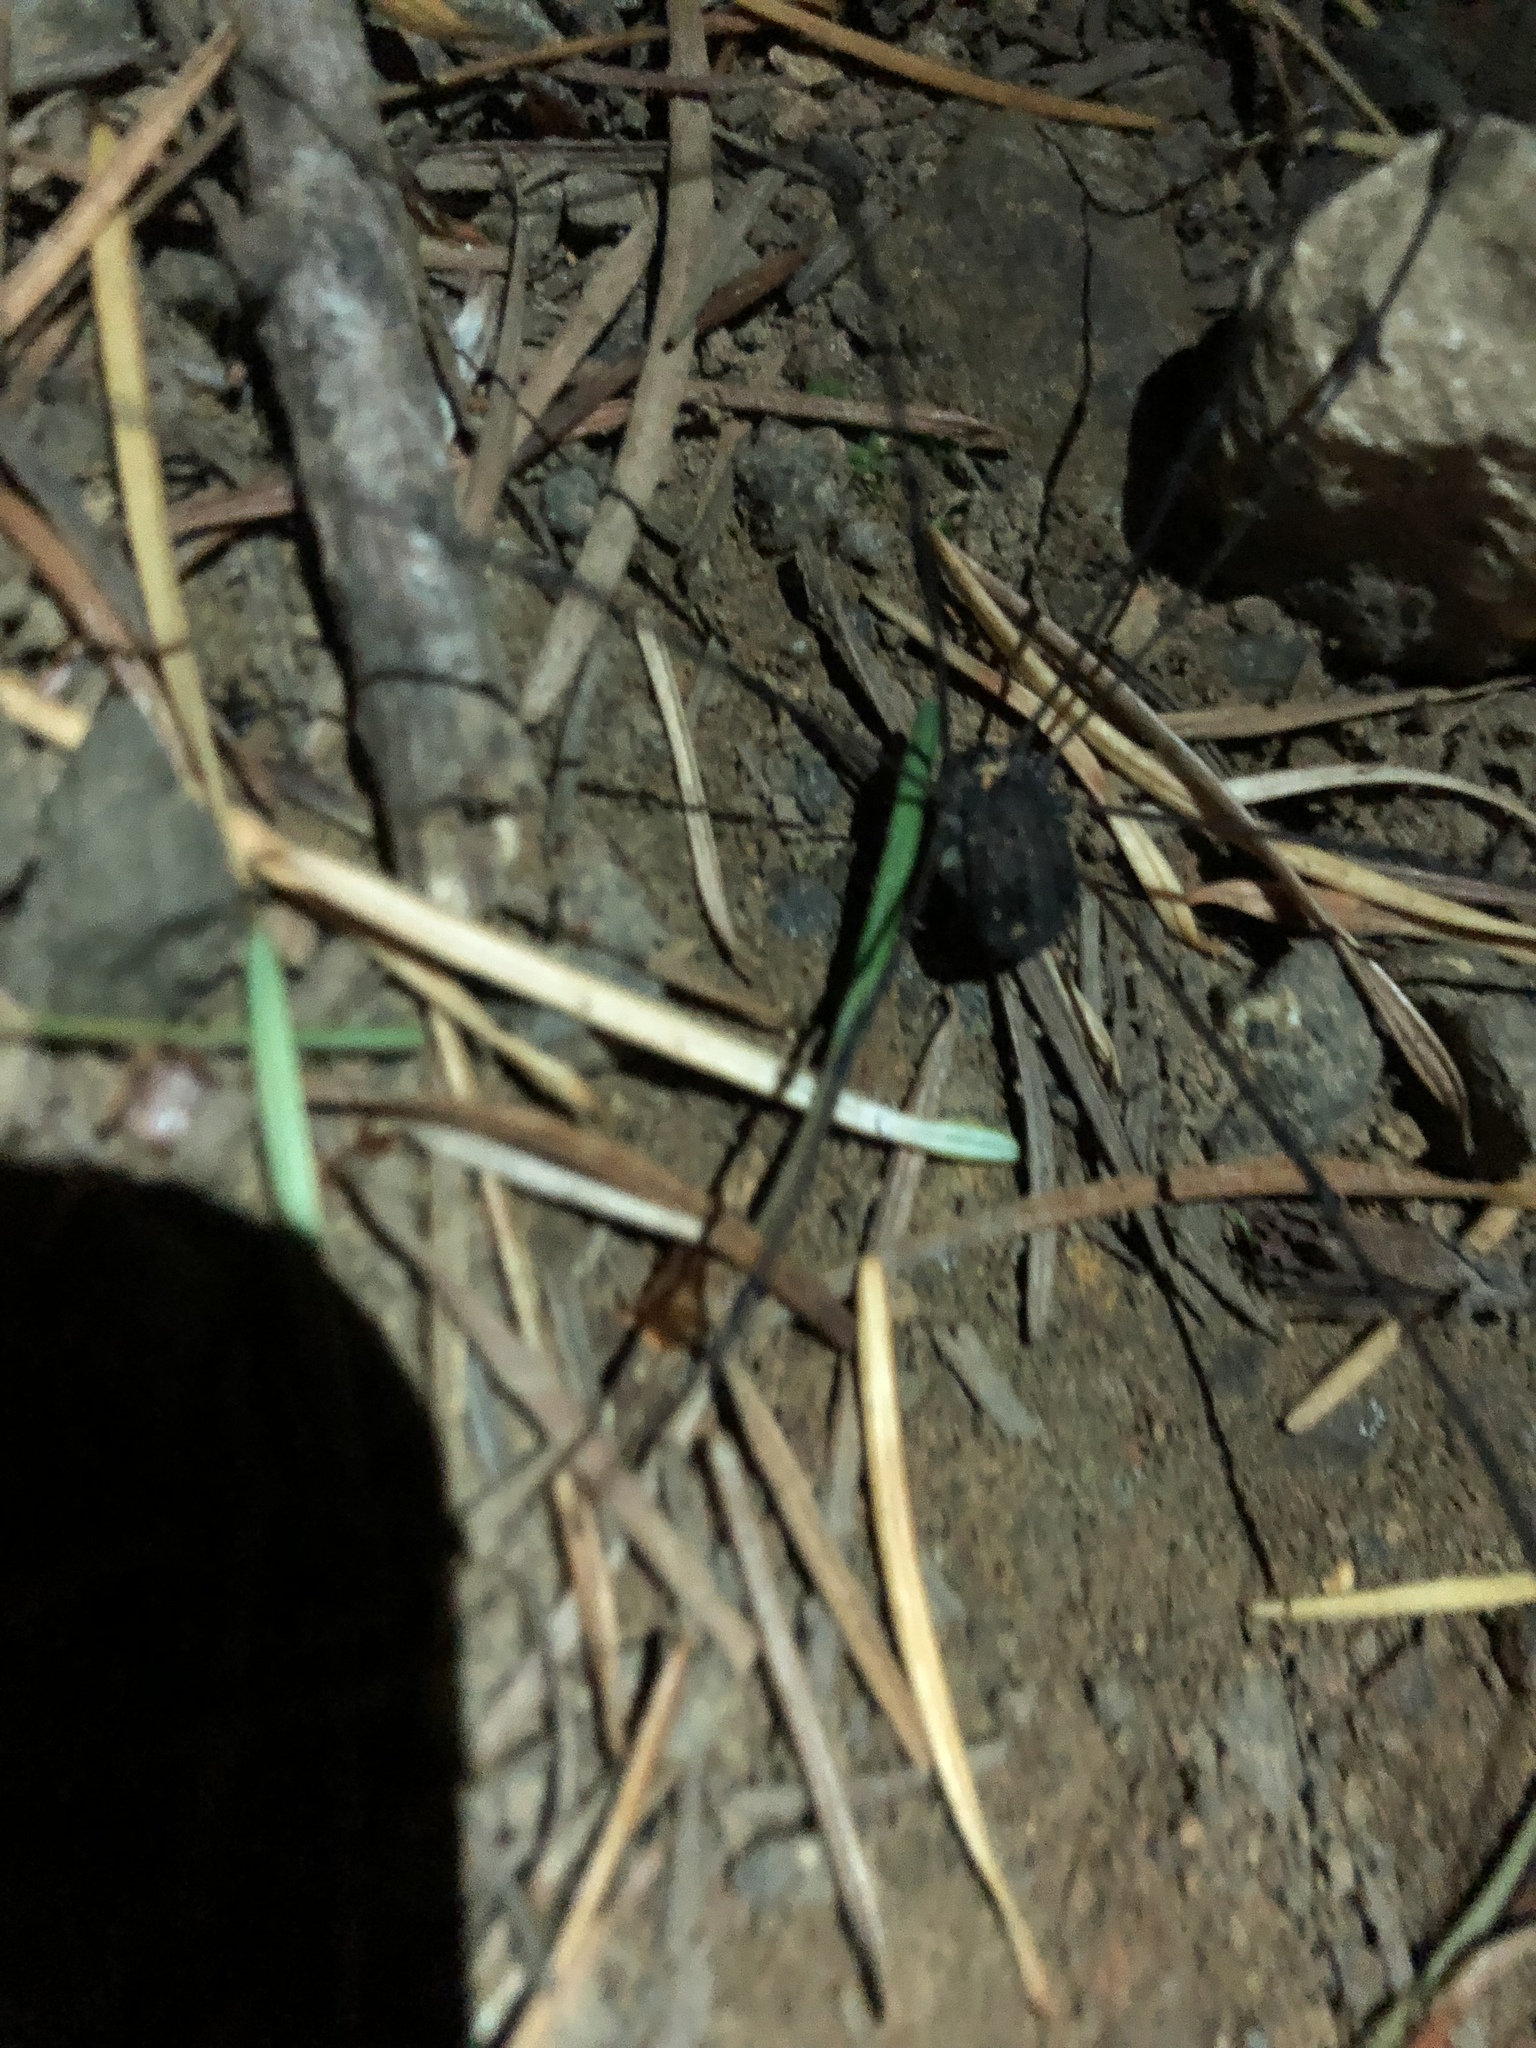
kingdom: Animalia
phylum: Arthropoda
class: Arachnida
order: Opiliones
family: Sclerosomatidae
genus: Leiobunum
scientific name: Leiobunum exilipes
